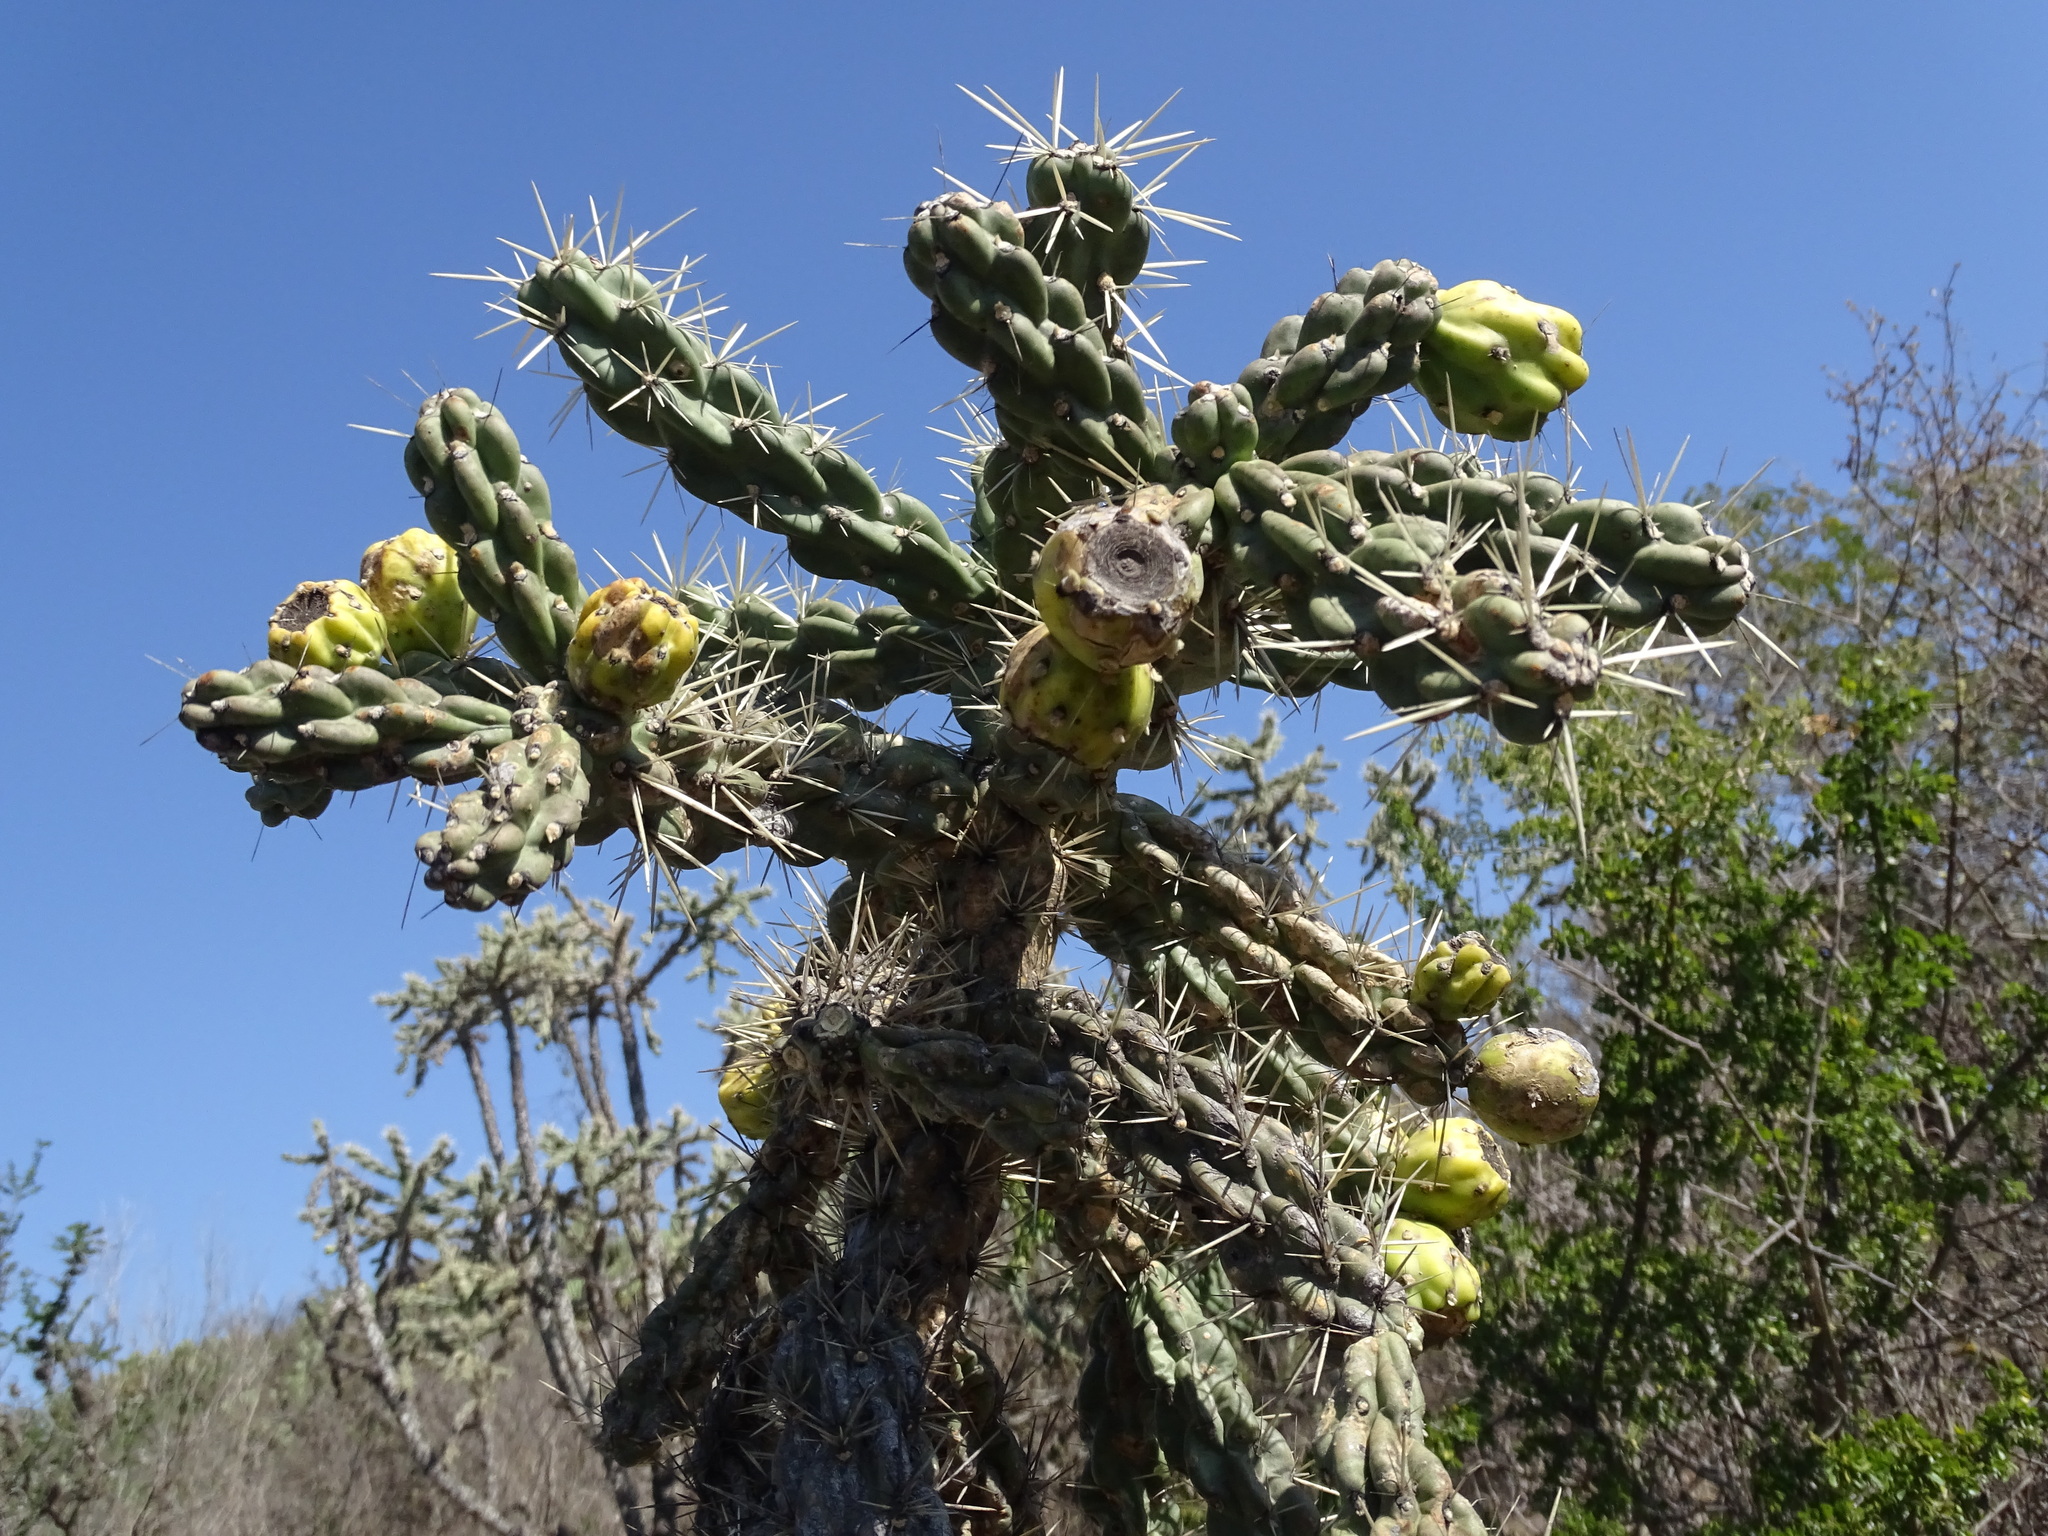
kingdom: Plantae
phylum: Tracheophyta
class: Magnoliopsida
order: Caryophyllales
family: Cactaceae
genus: Cylindropuntia
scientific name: Cylindropuntia imbricata
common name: Candelabrum cactus
